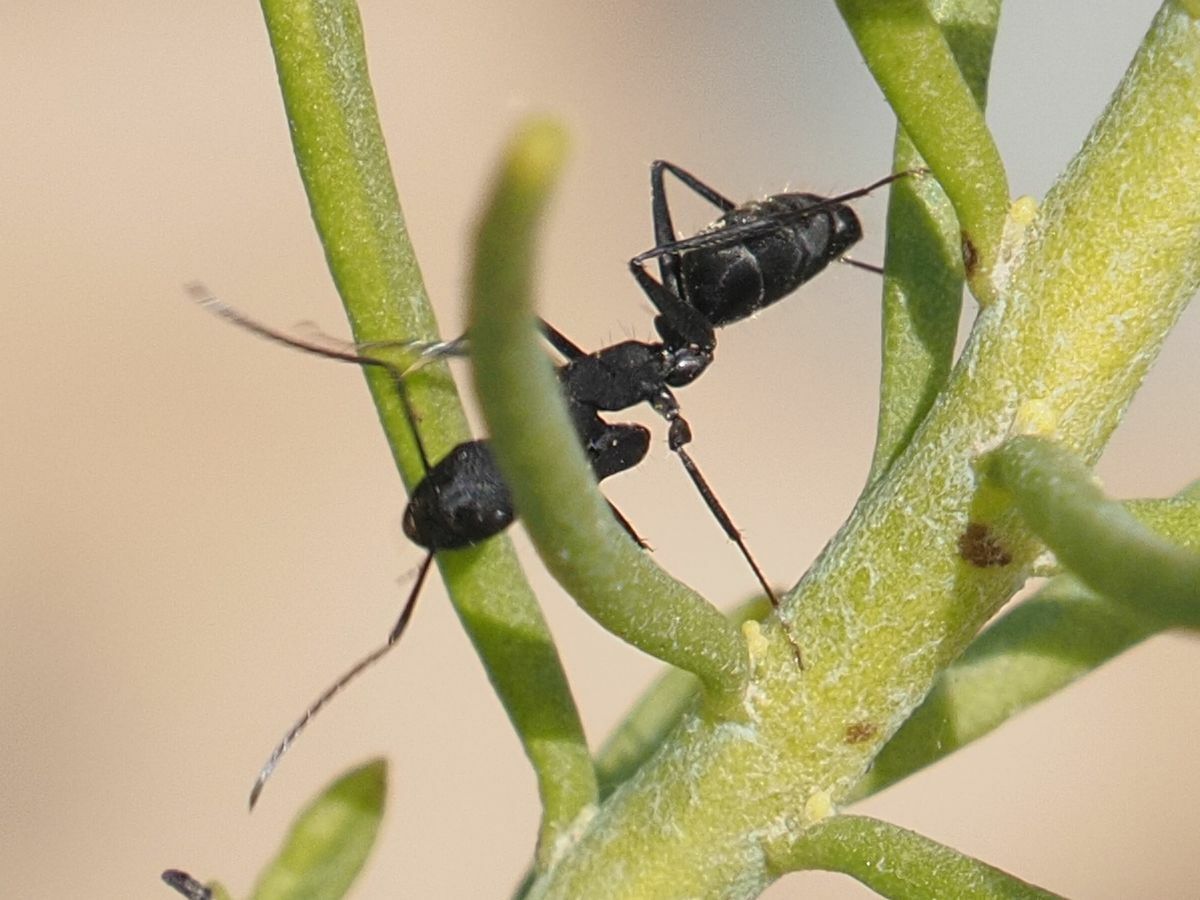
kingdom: Animalia
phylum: Arthropoda
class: Insecta
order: Hymenoptera
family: Formicidae
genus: Camponotus
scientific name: Camponotus feai
